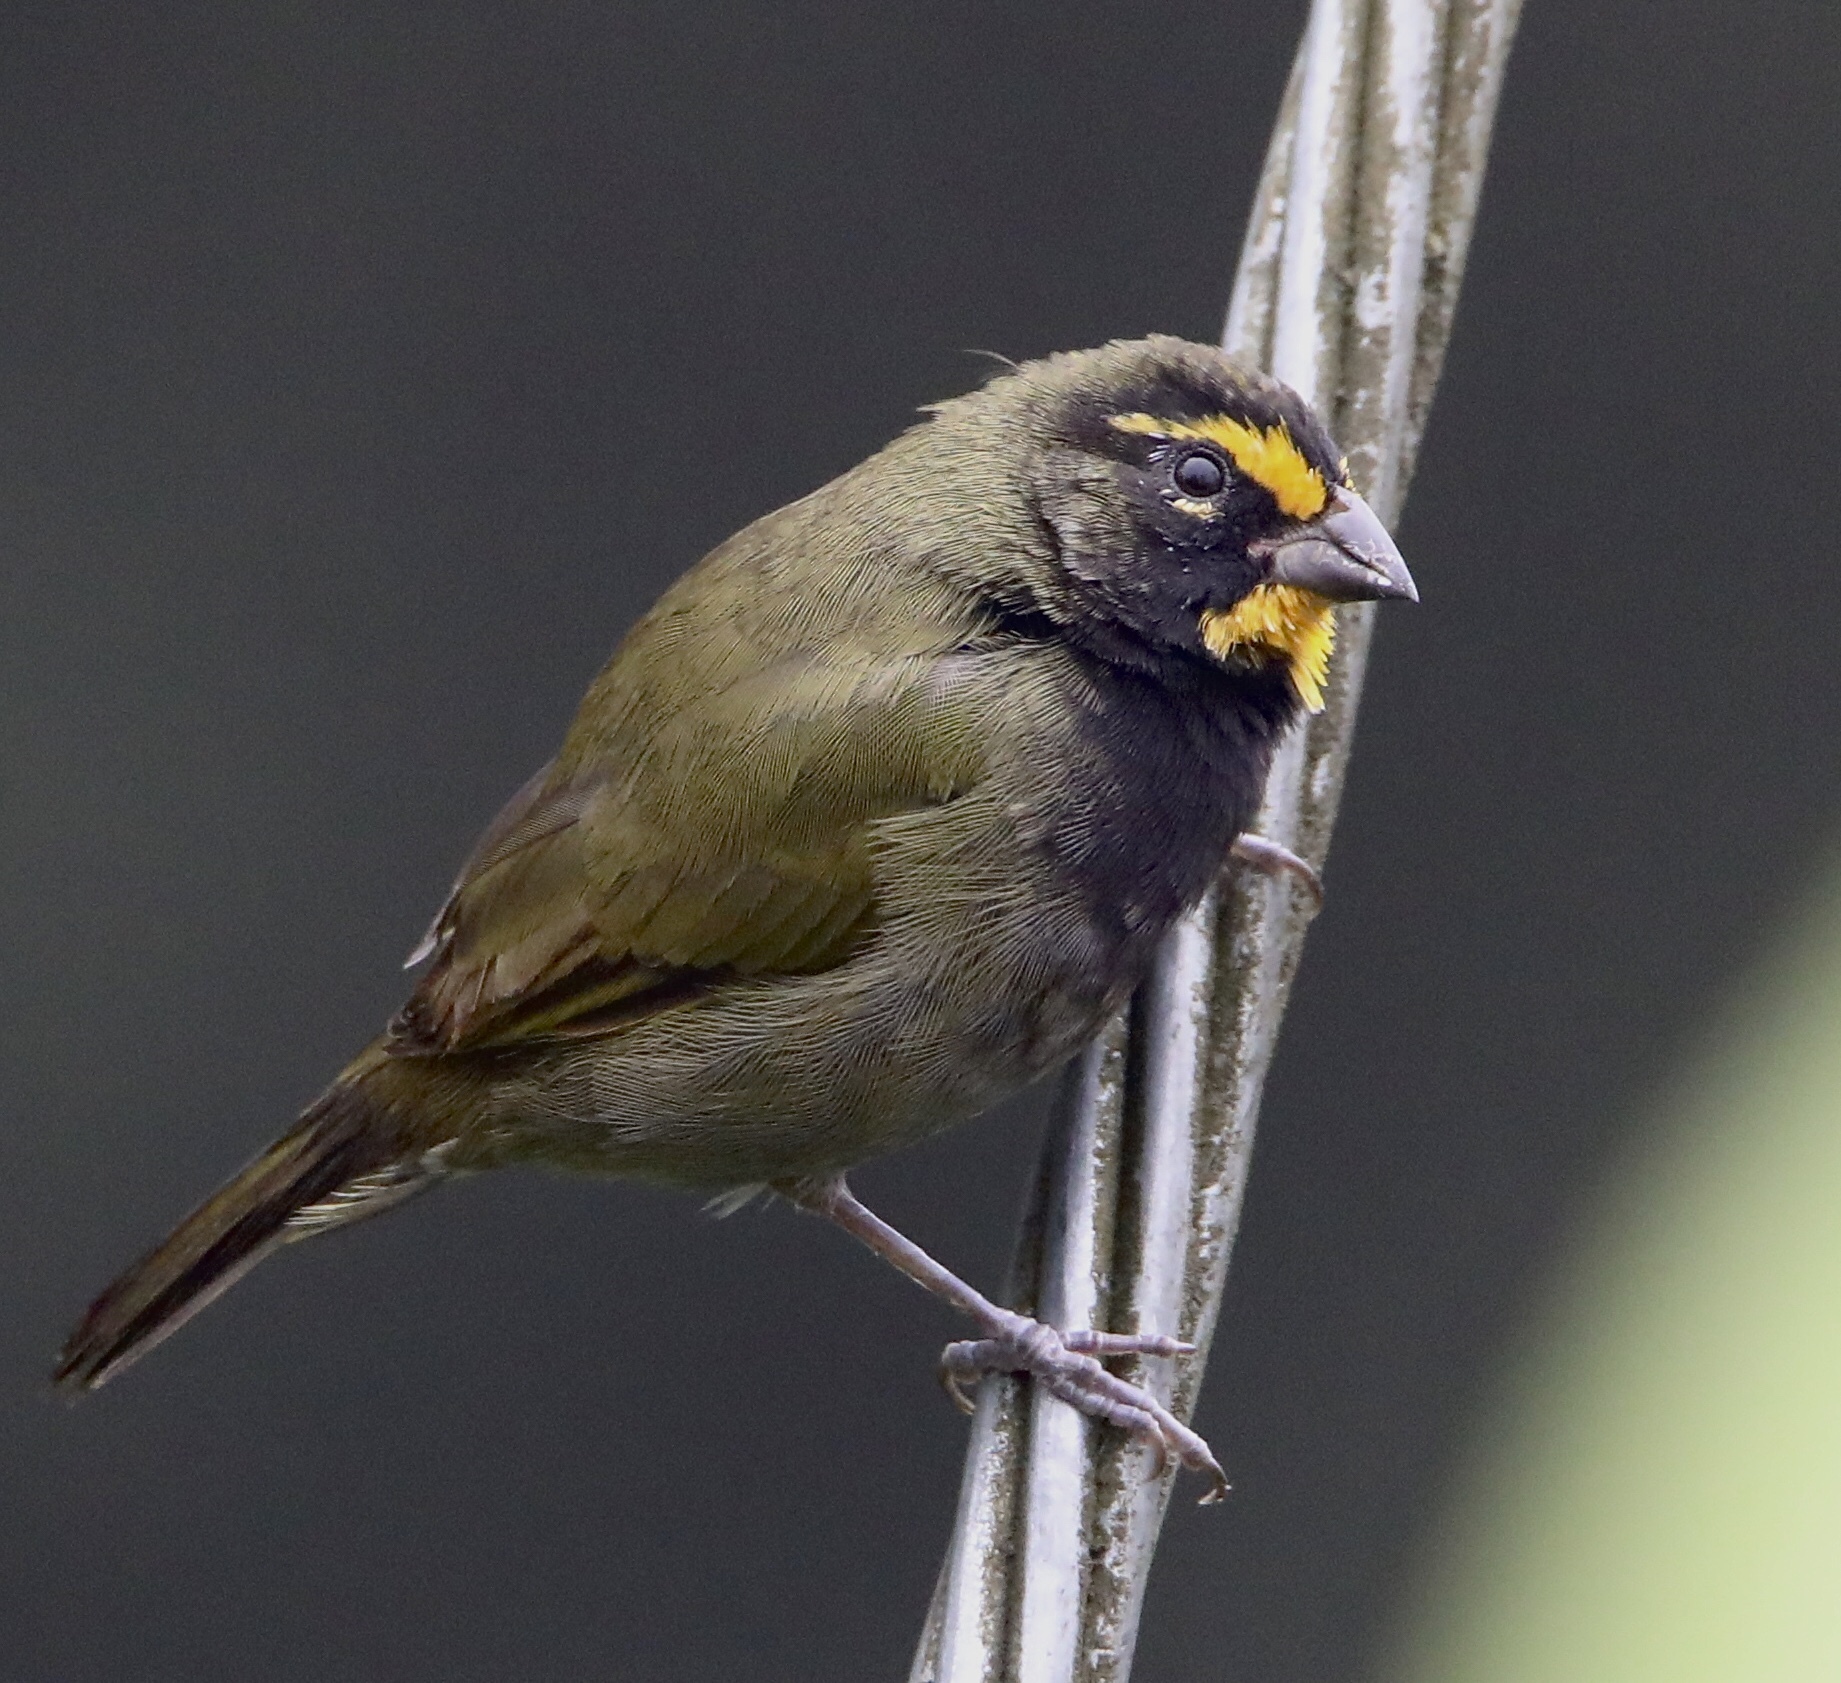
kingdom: Animalia
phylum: Chordata
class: Aves
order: Passeriformes
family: Thraupidae
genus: Tiaris
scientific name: Tiaris olivaceus
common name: Yellow-faced grassquit
